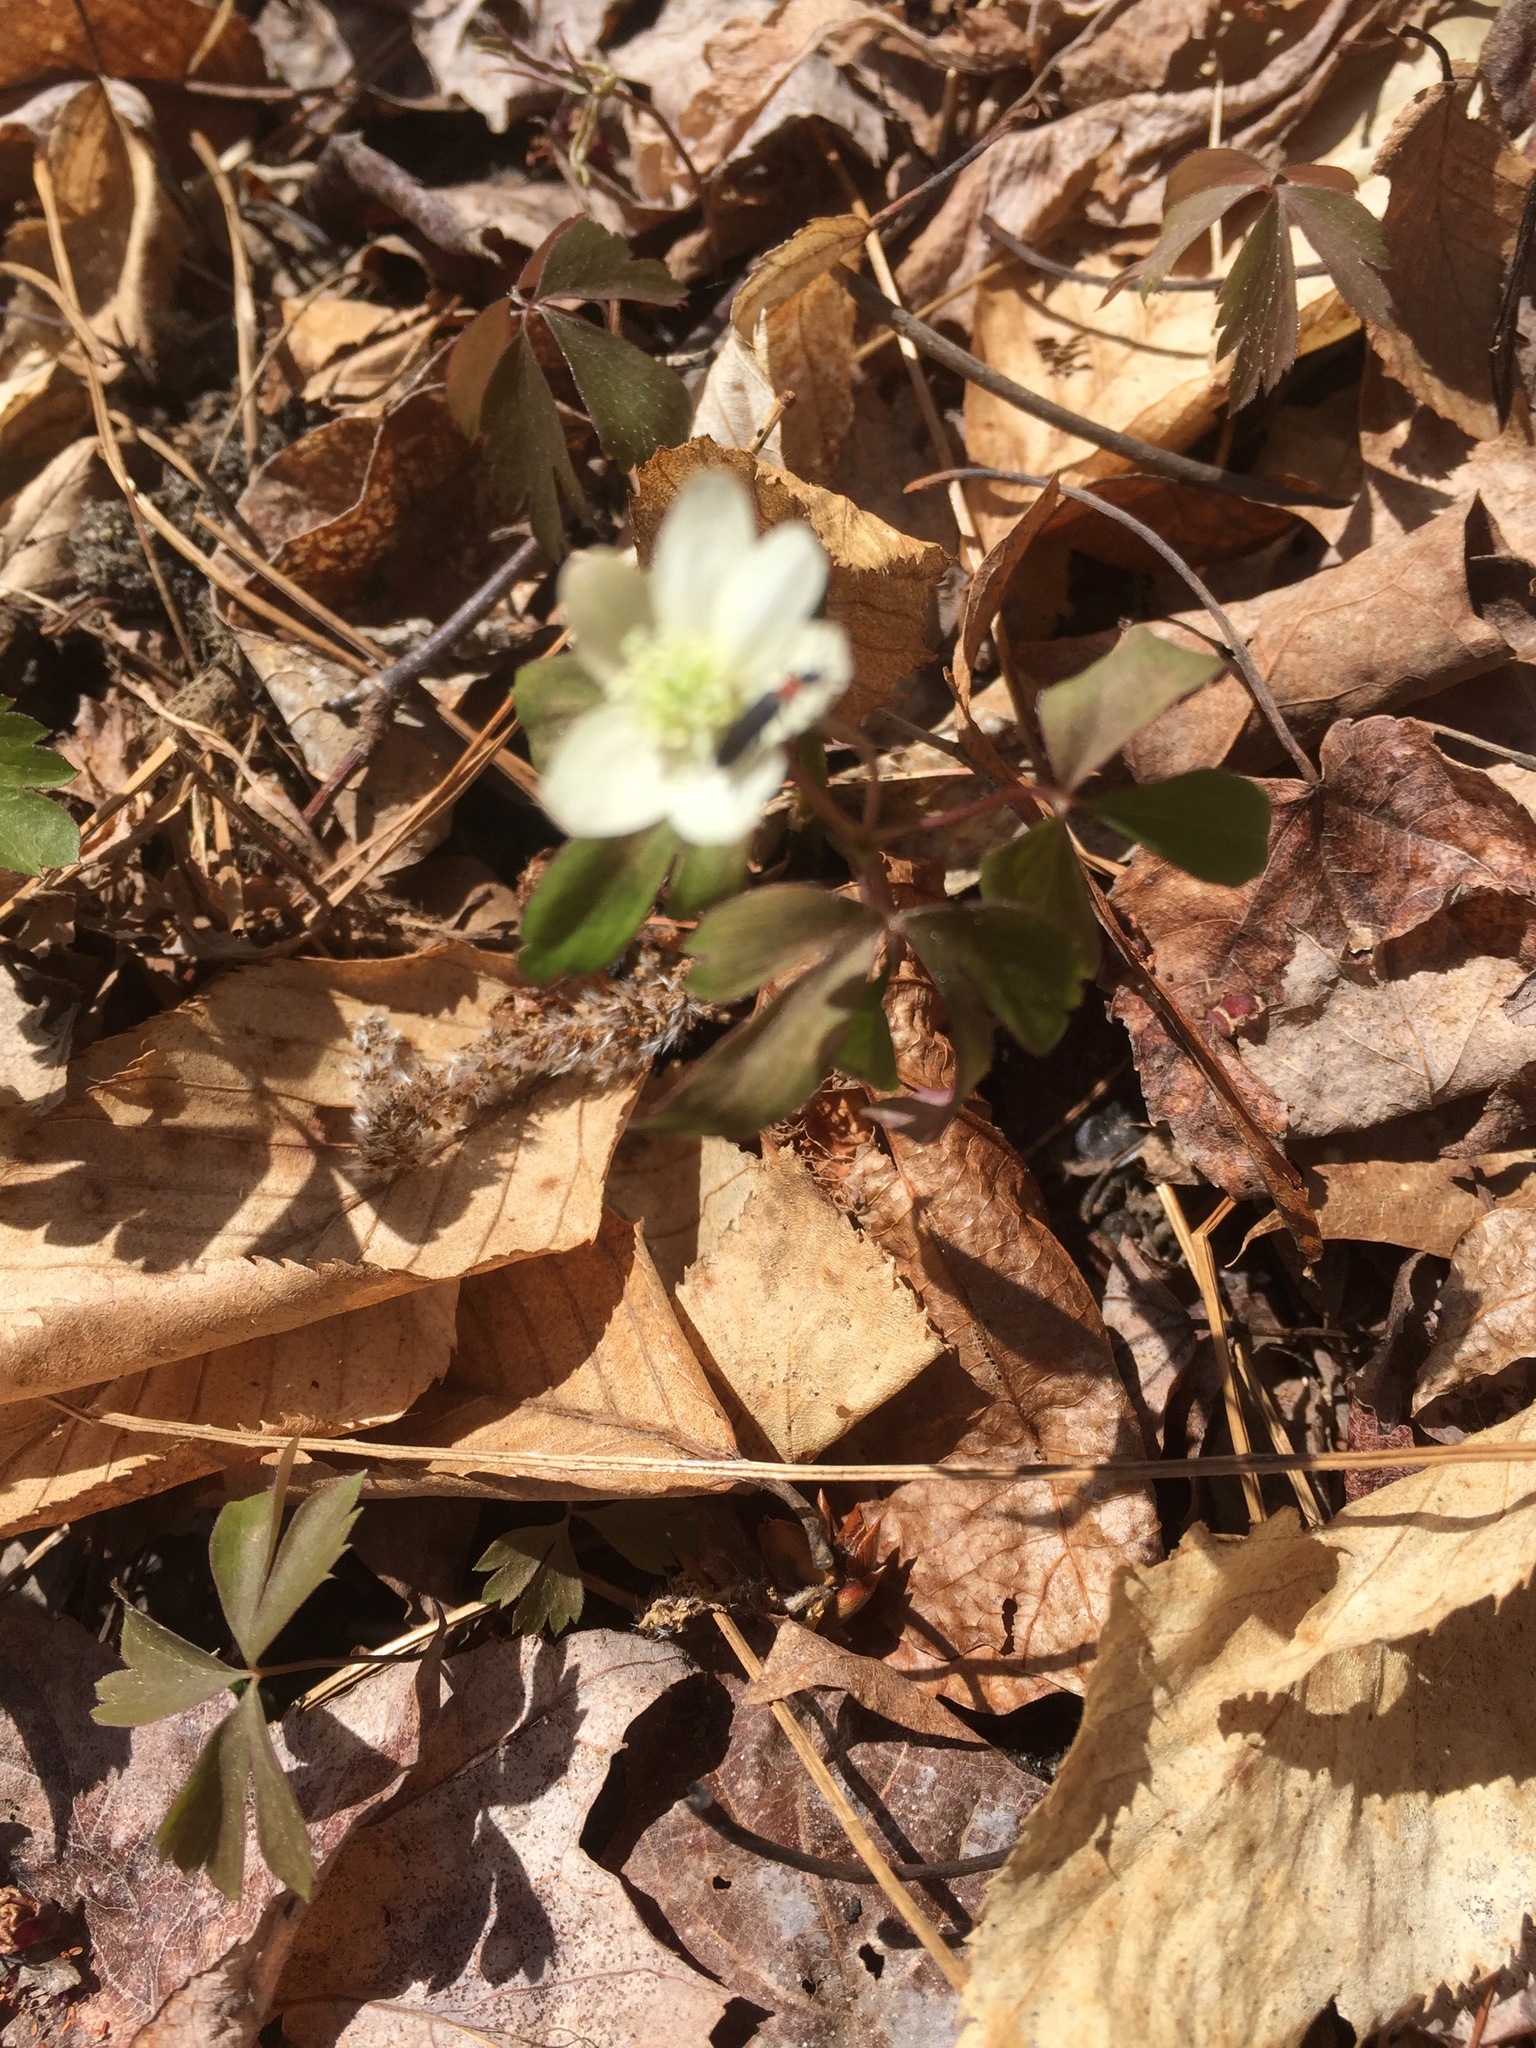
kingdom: Plantae
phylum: Tracheophyta
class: Magnoliopsida
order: Ranunculales
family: Ranunculaceae
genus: Anemone
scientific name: Anemone quinquefolia
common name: Wood anemone
